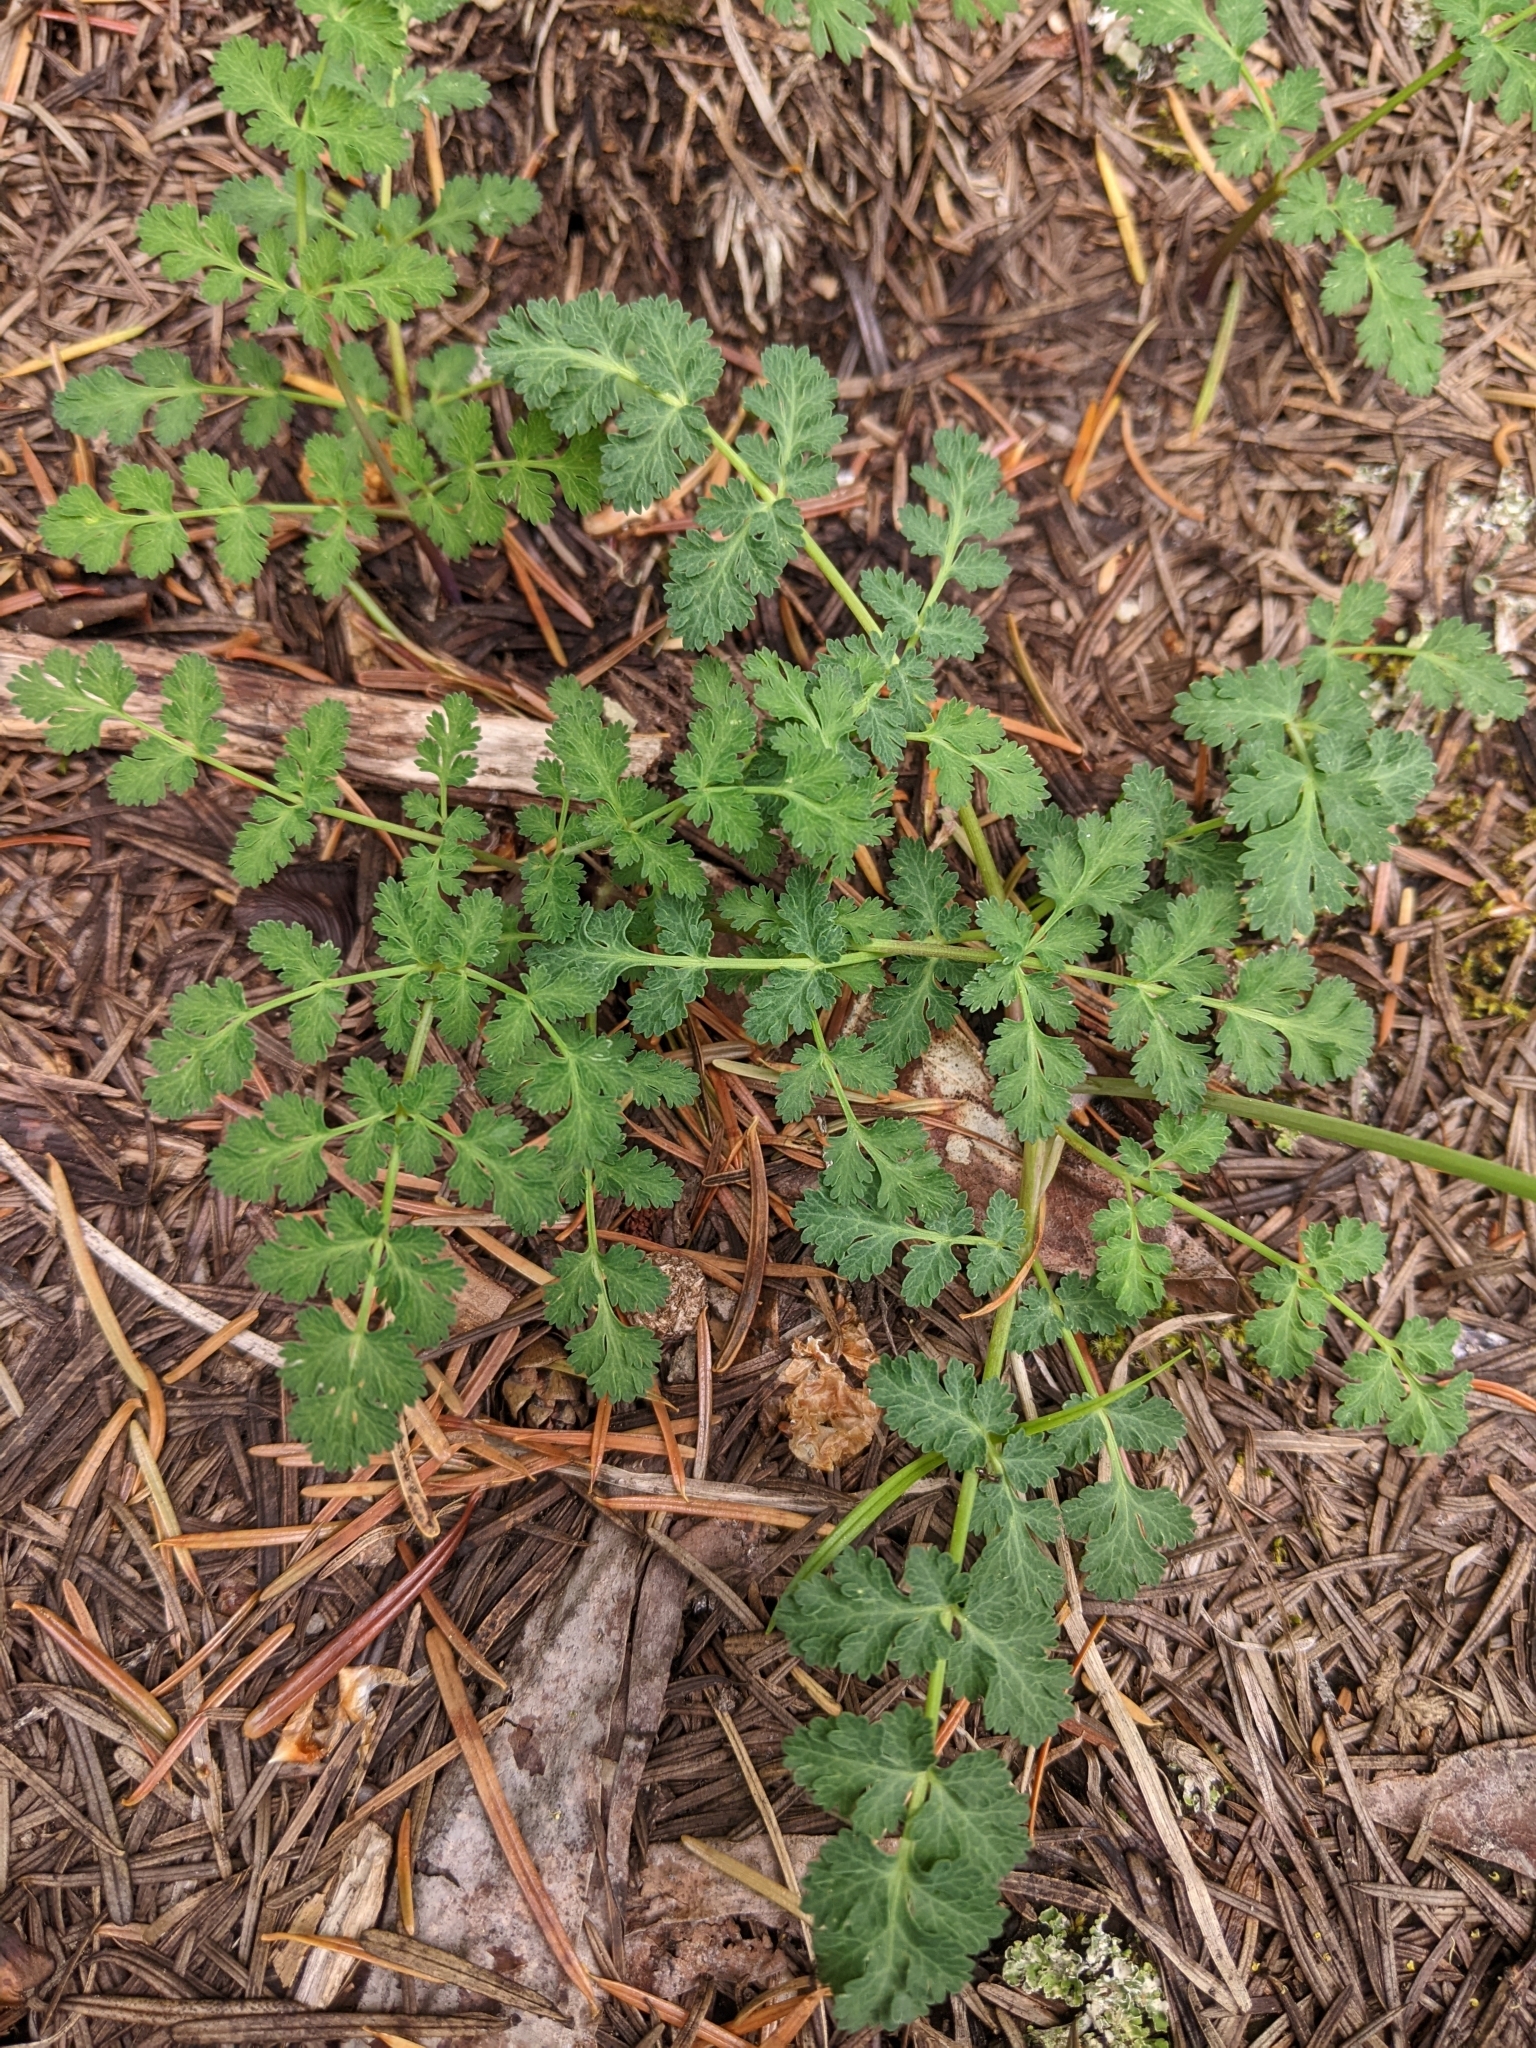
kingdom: Plantae
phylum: Tracheophyta
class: Magnoliopsida
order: Apiales
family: Apiaceae
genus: Lomatium
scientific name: Lomatium martindalei
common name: Cascade desert-parsley
